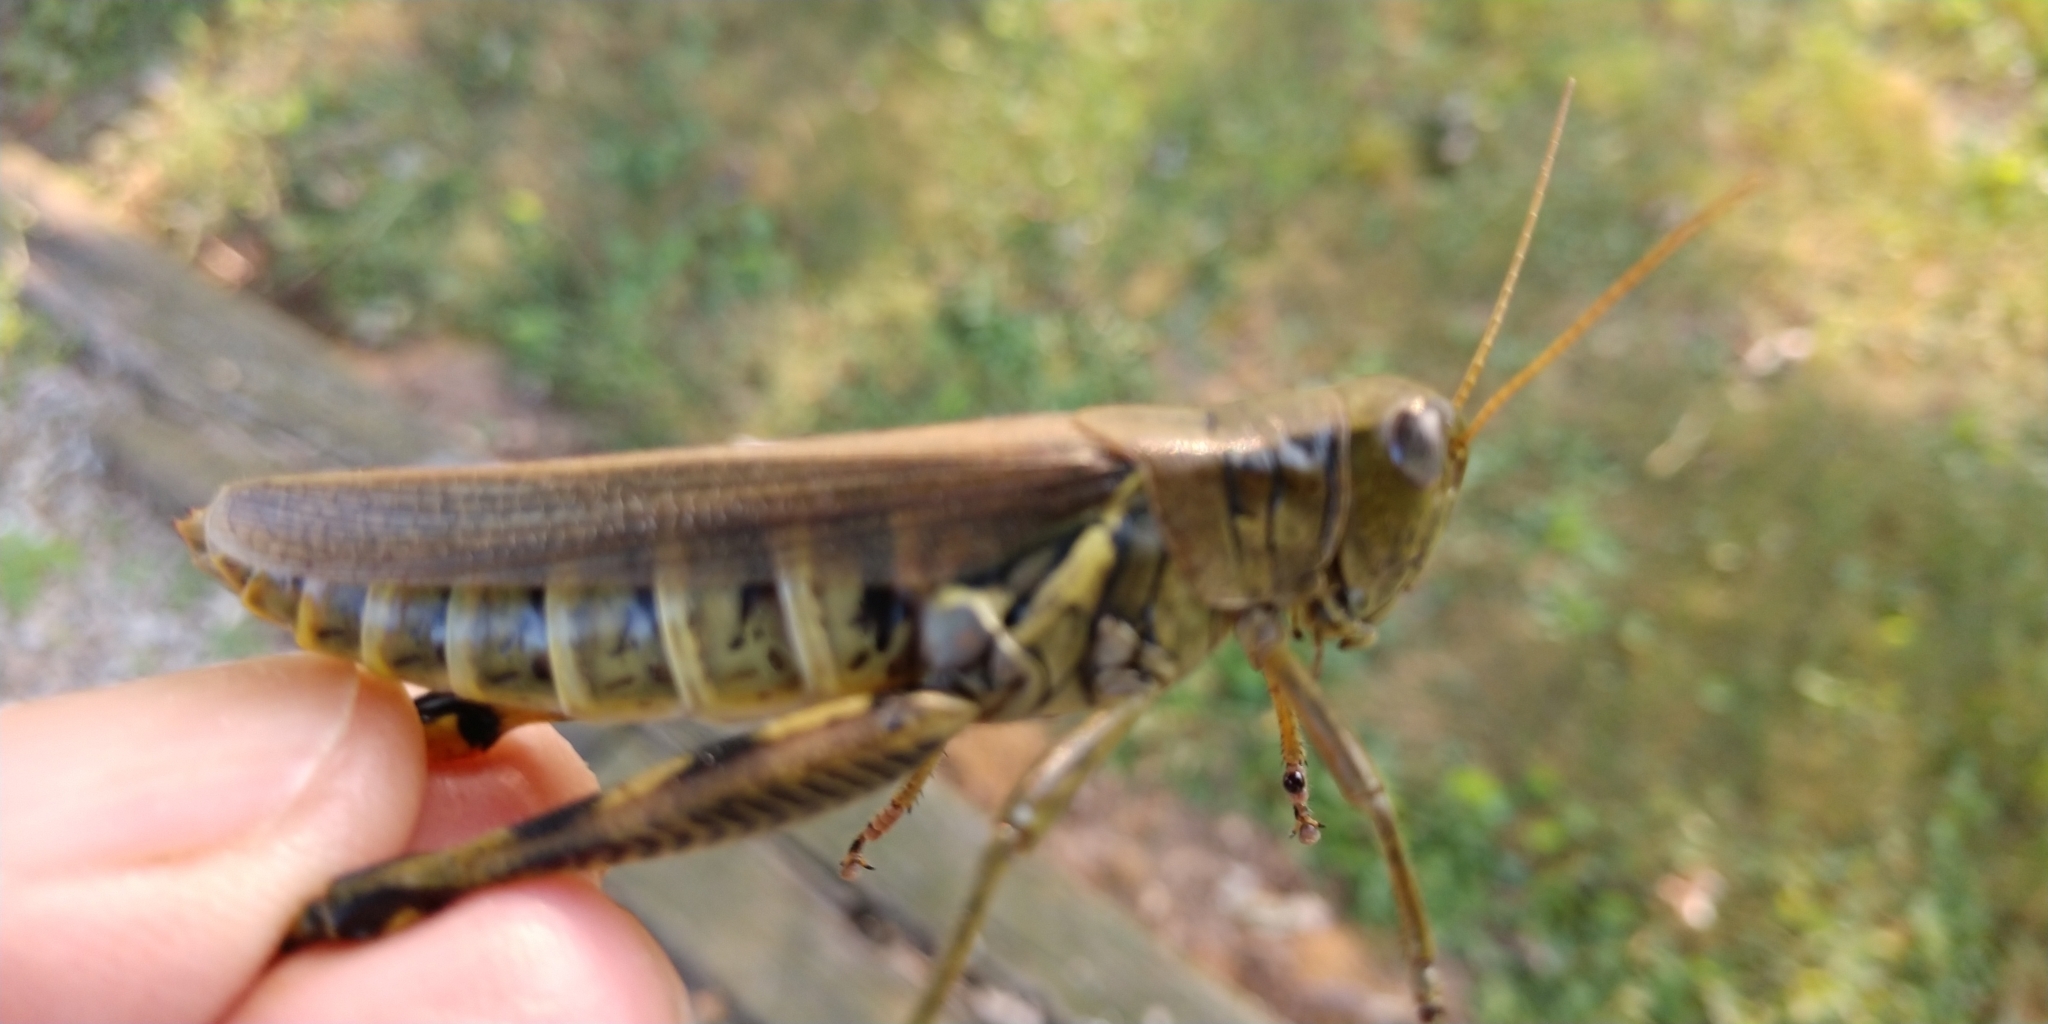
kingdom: Animalia
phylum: Arthropoda
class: Insecta
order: Orthoptera
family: Acrididae
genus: Melanoplus
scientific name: Melanoplus differentialis
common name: Differential grasshopper
